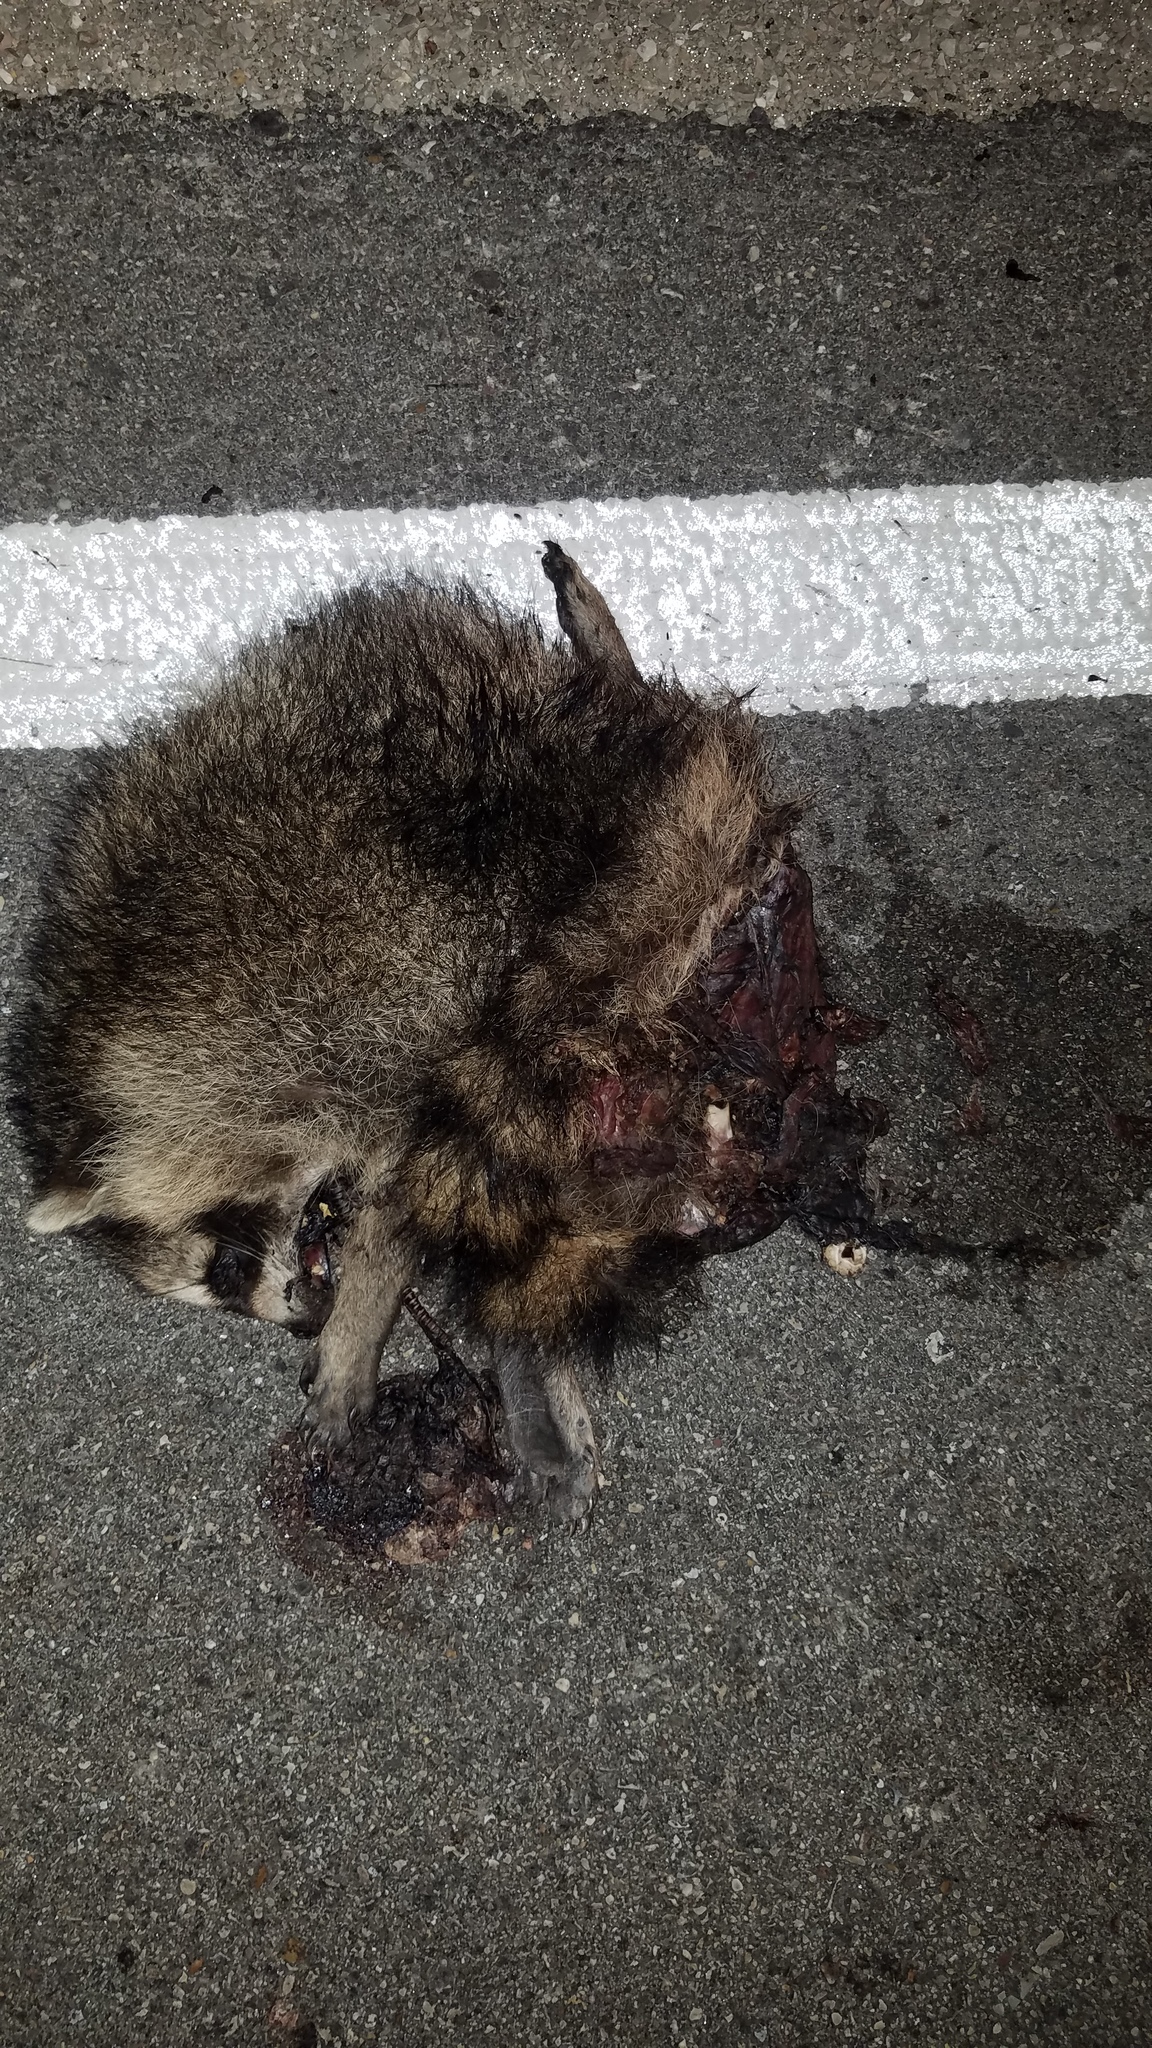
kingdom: Animalia
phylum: Chordata
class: Mammalia
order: Carnivora
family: Procyonidae
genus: Procyon
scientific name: Procyon lotor
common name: Raccoon
